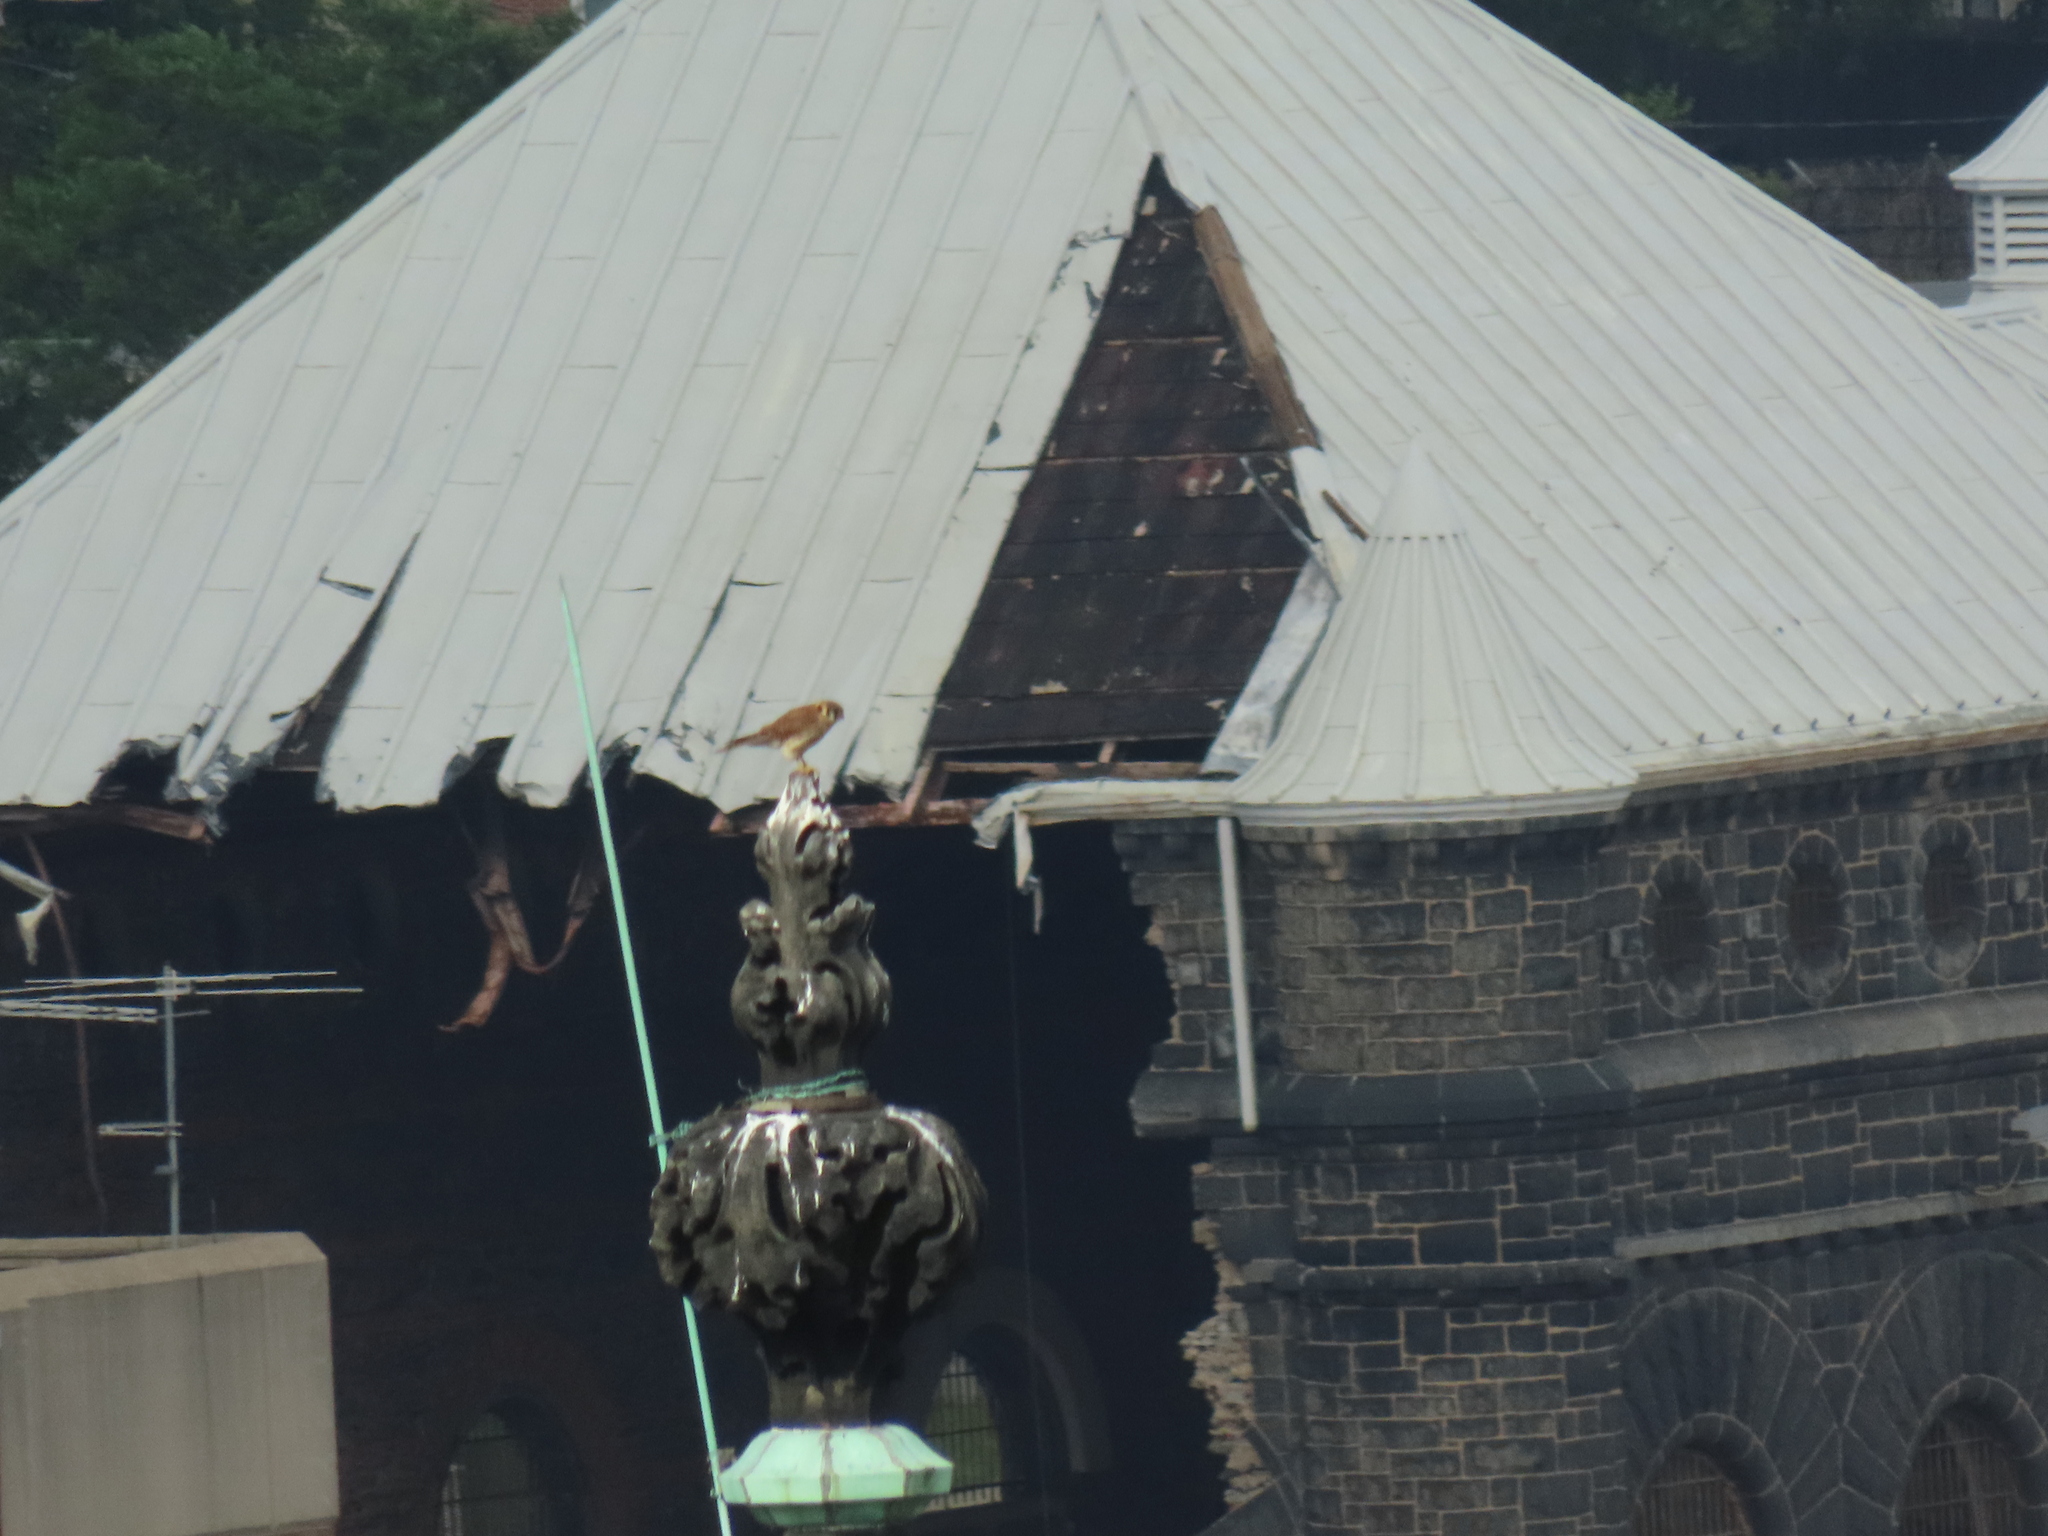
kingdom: Animalia
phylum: Chordata
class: Aves
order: Falconiformes
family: Falconidae
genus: Falco
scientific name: Falco sparverius
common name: American kestrel
